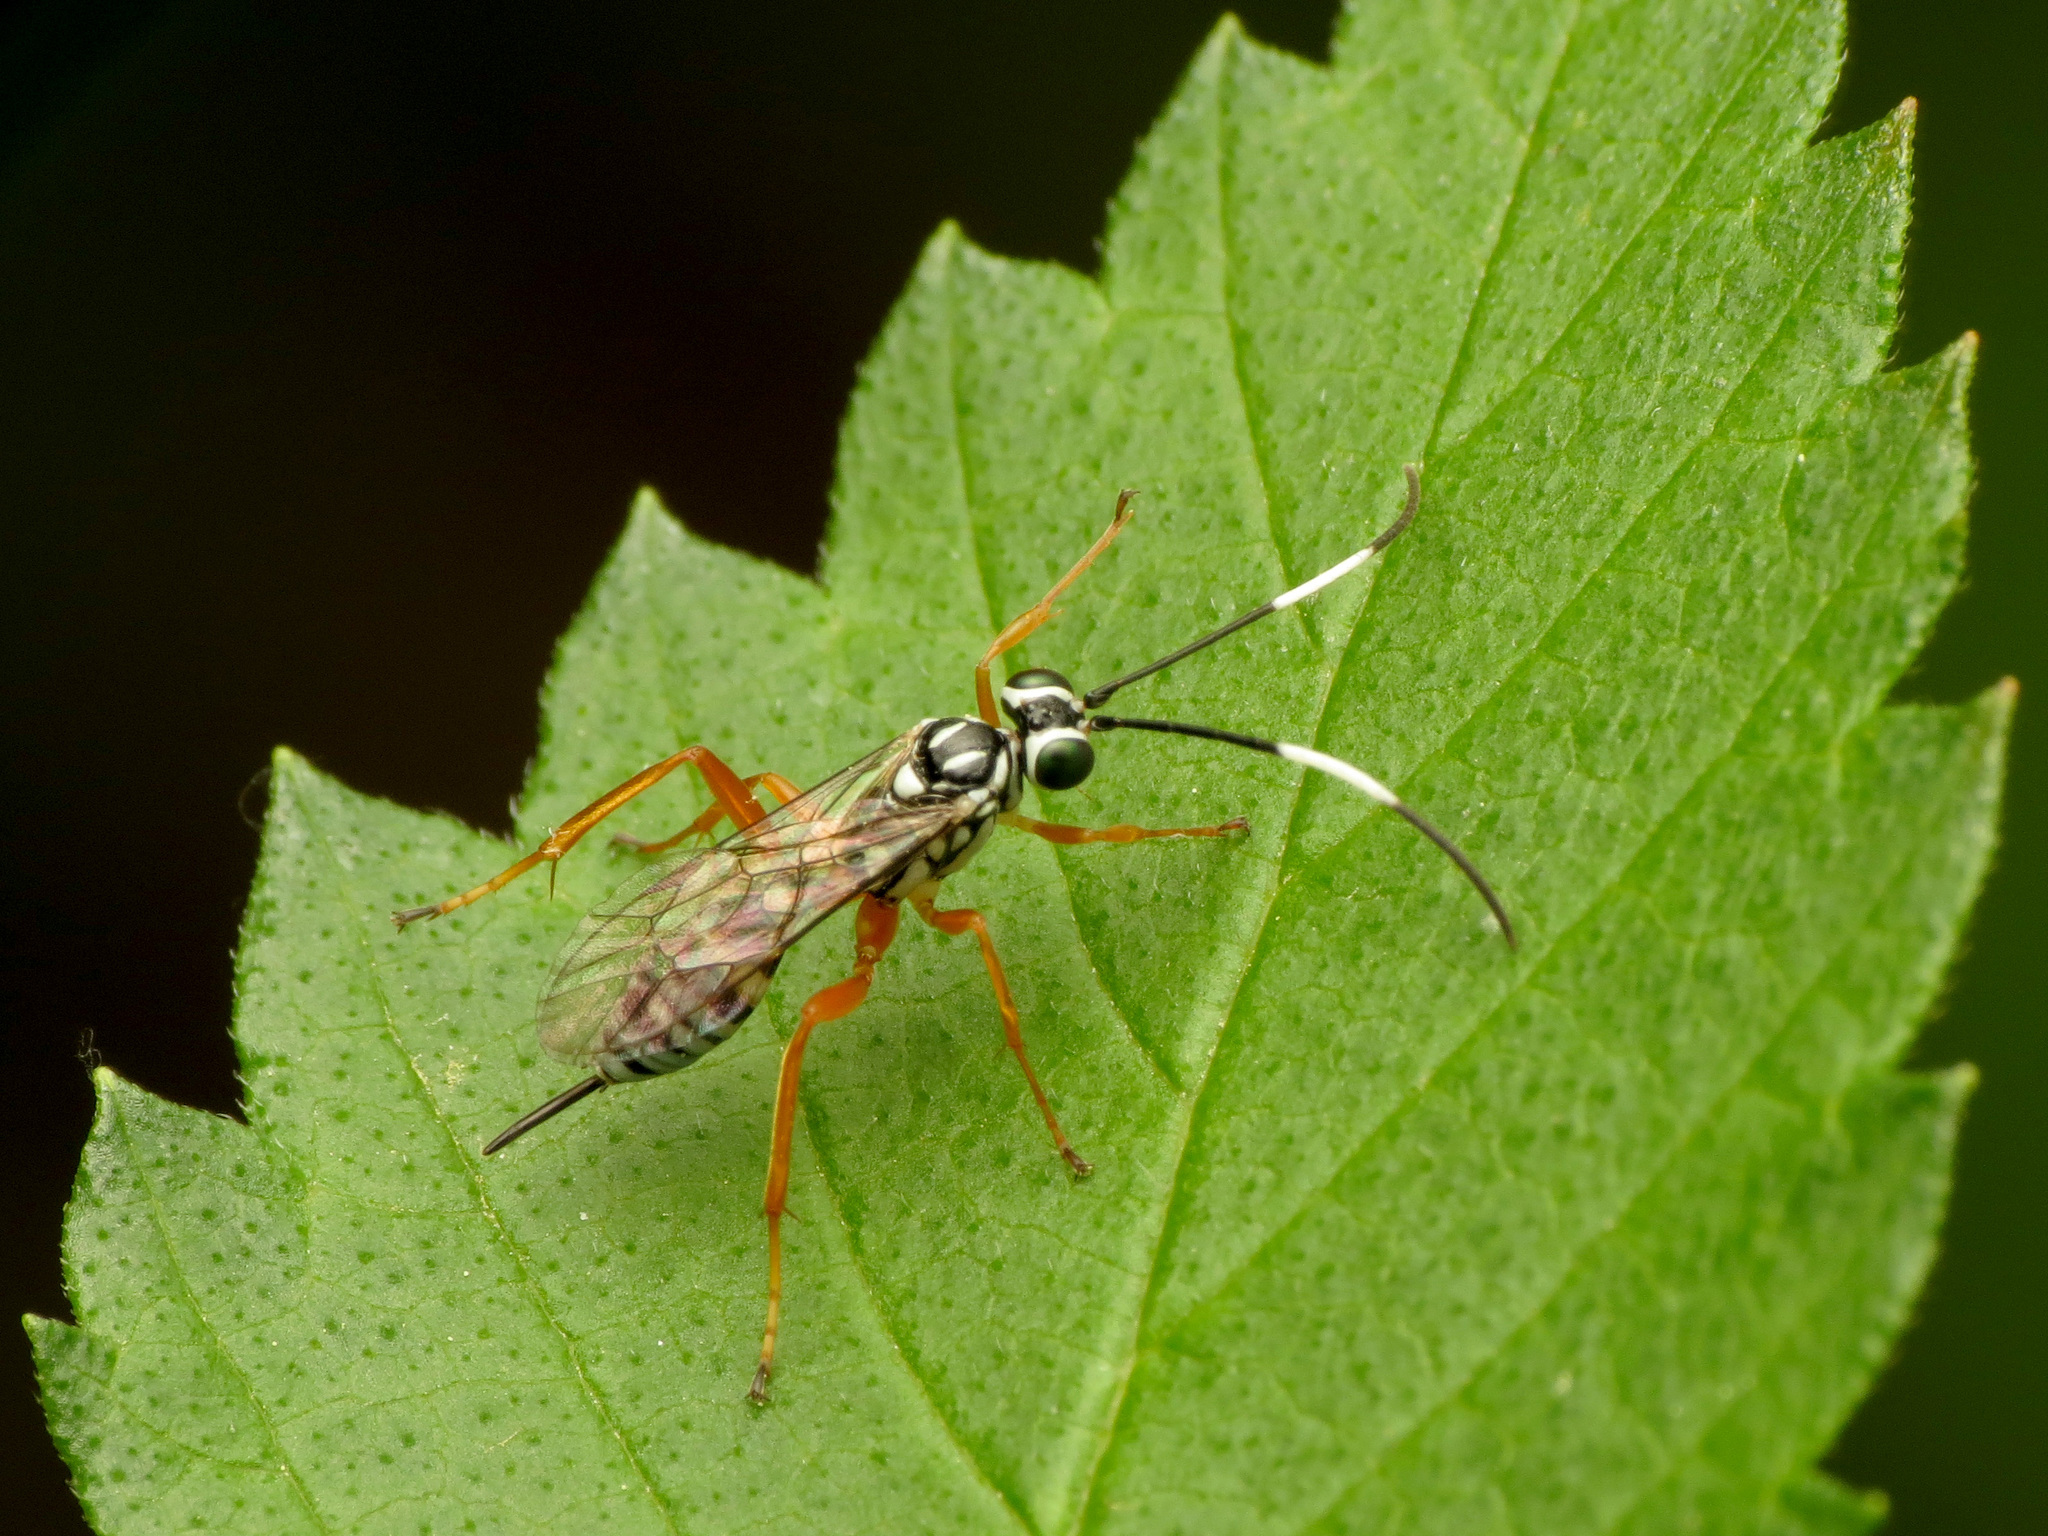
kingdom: Animalia
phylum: Arthropoda
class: Insecta
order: Hymenoptera
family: Ichneumonidae
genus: Lymeon
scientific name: Lymeon orbus
